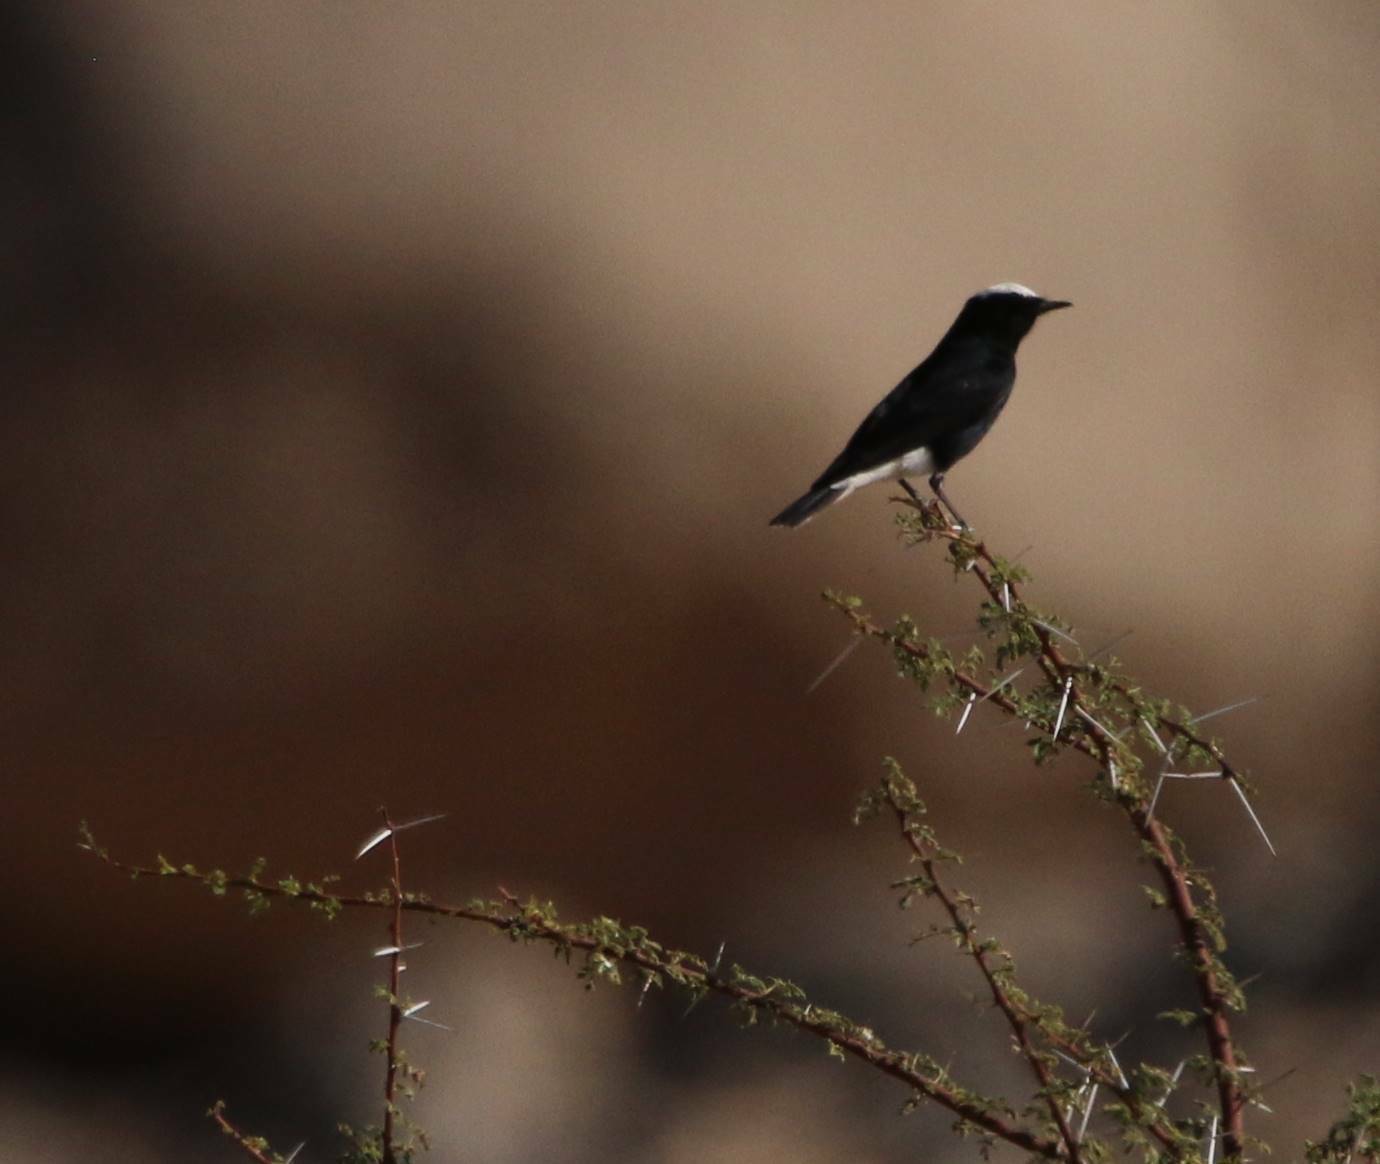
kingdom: Animalia
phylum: Chordata
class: Aves
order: Passeriformes
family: Muscicapidae
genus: Oenanthe
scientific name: Oenanthe leucopyga
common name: White-crowned wheatear
